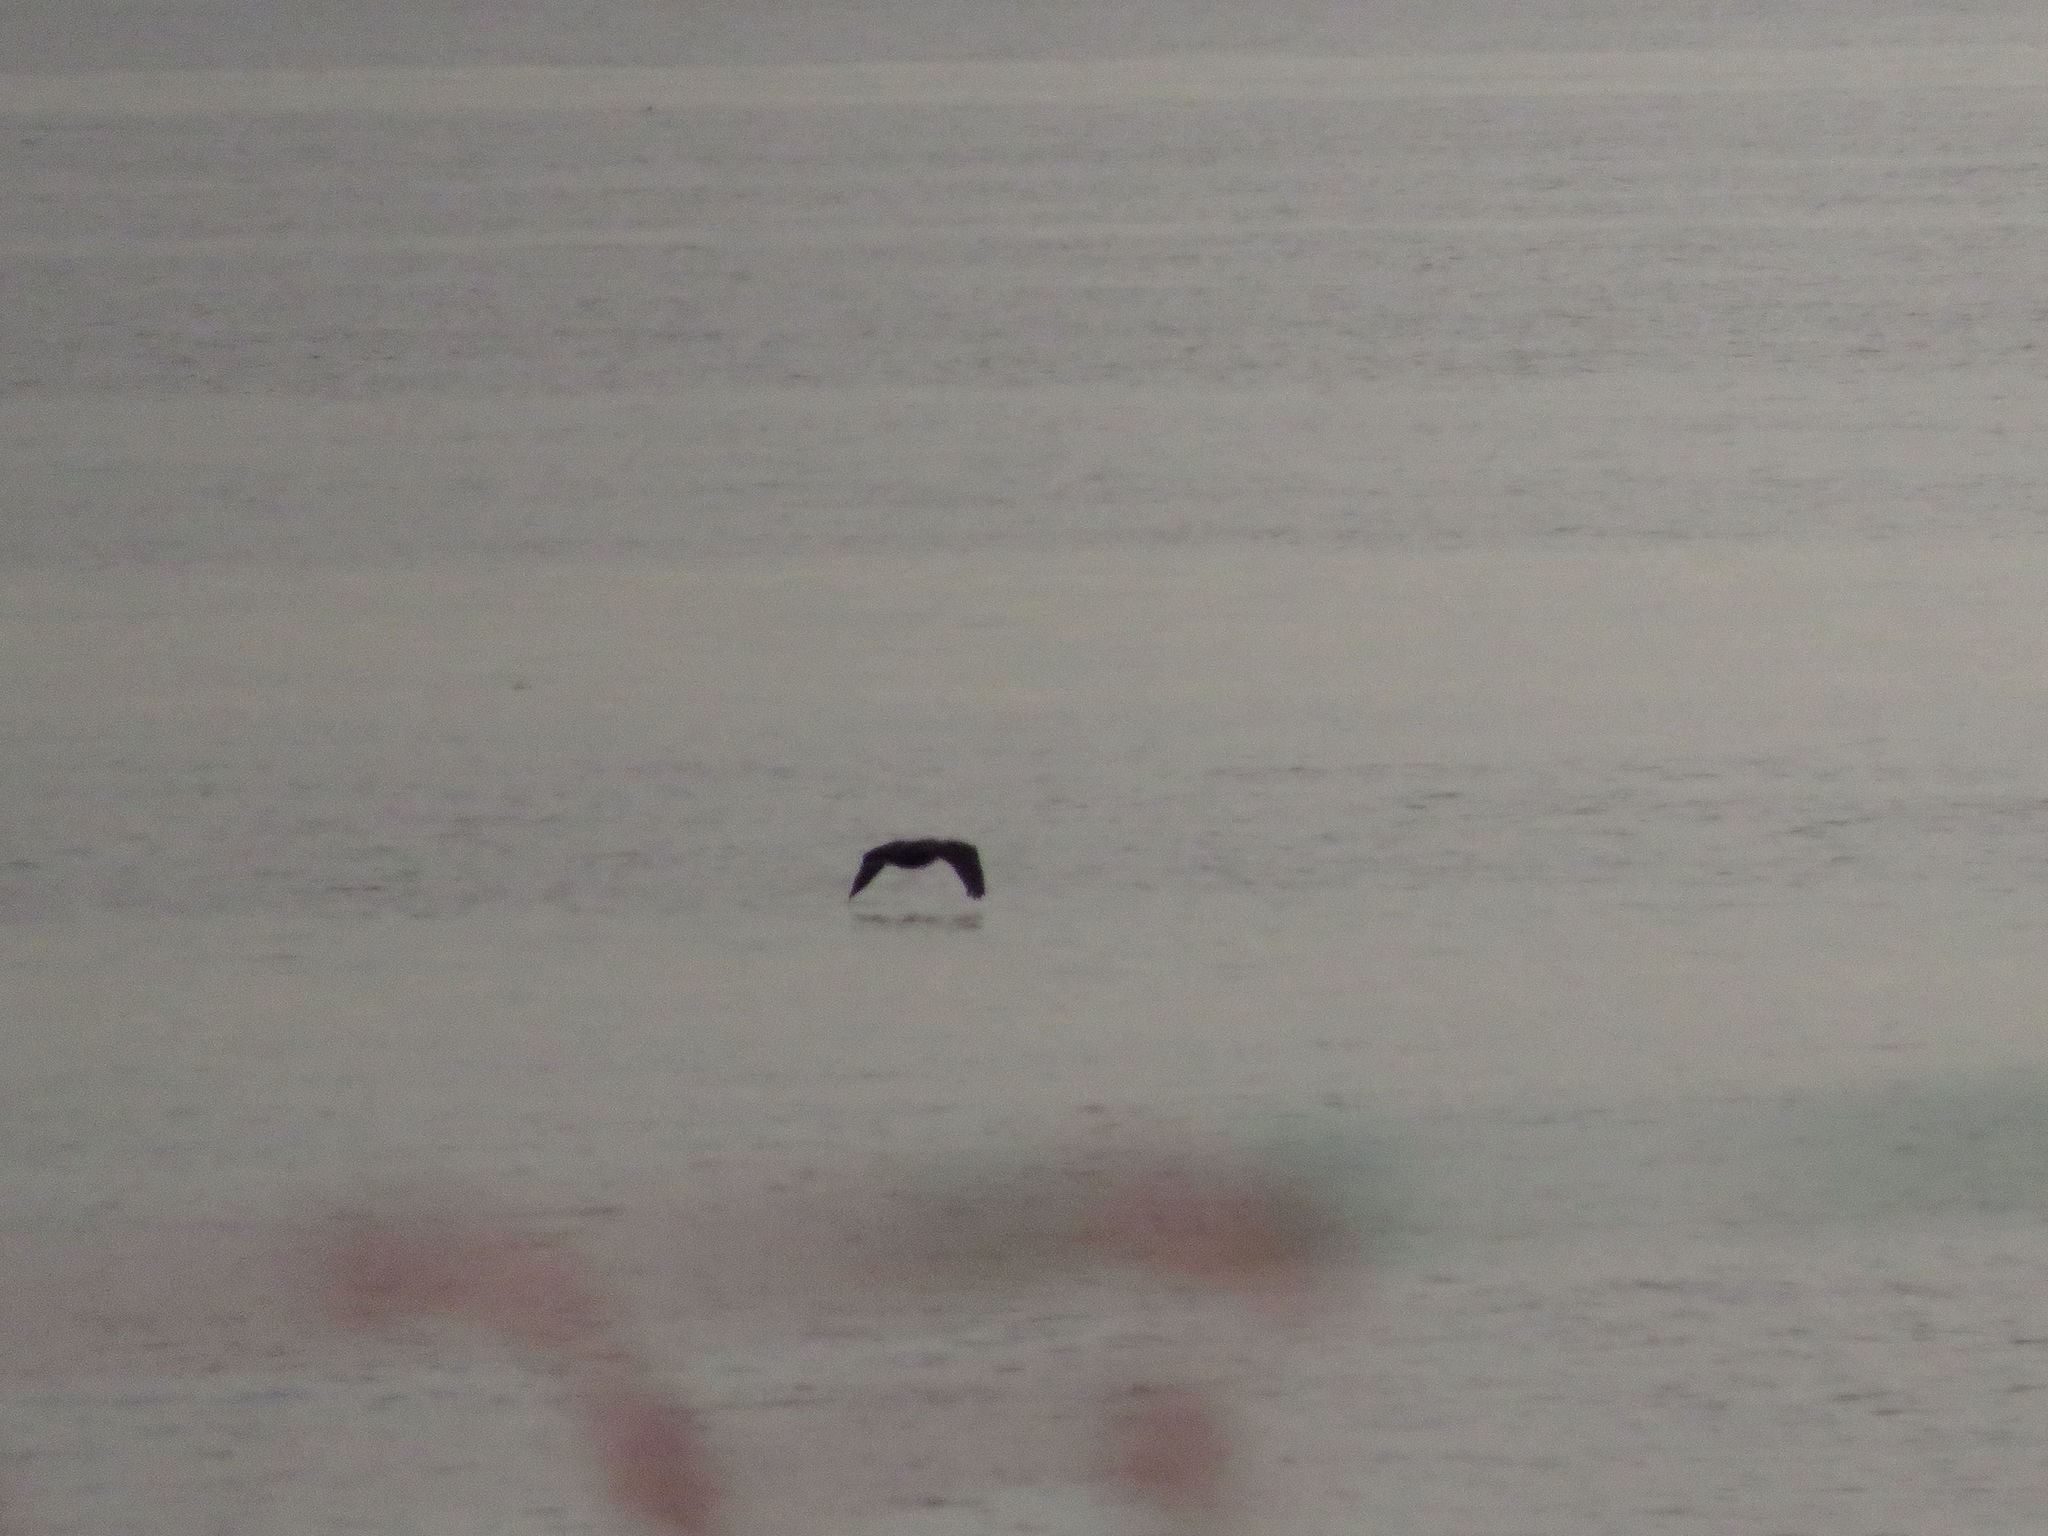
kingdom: Animalia
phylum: Chordata
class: Aves
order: Suliformes
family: Phalacrocoracidae
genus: Phalacrocorax
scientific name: Phalacrocorax brasilianus
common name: Neotropic cormorant
